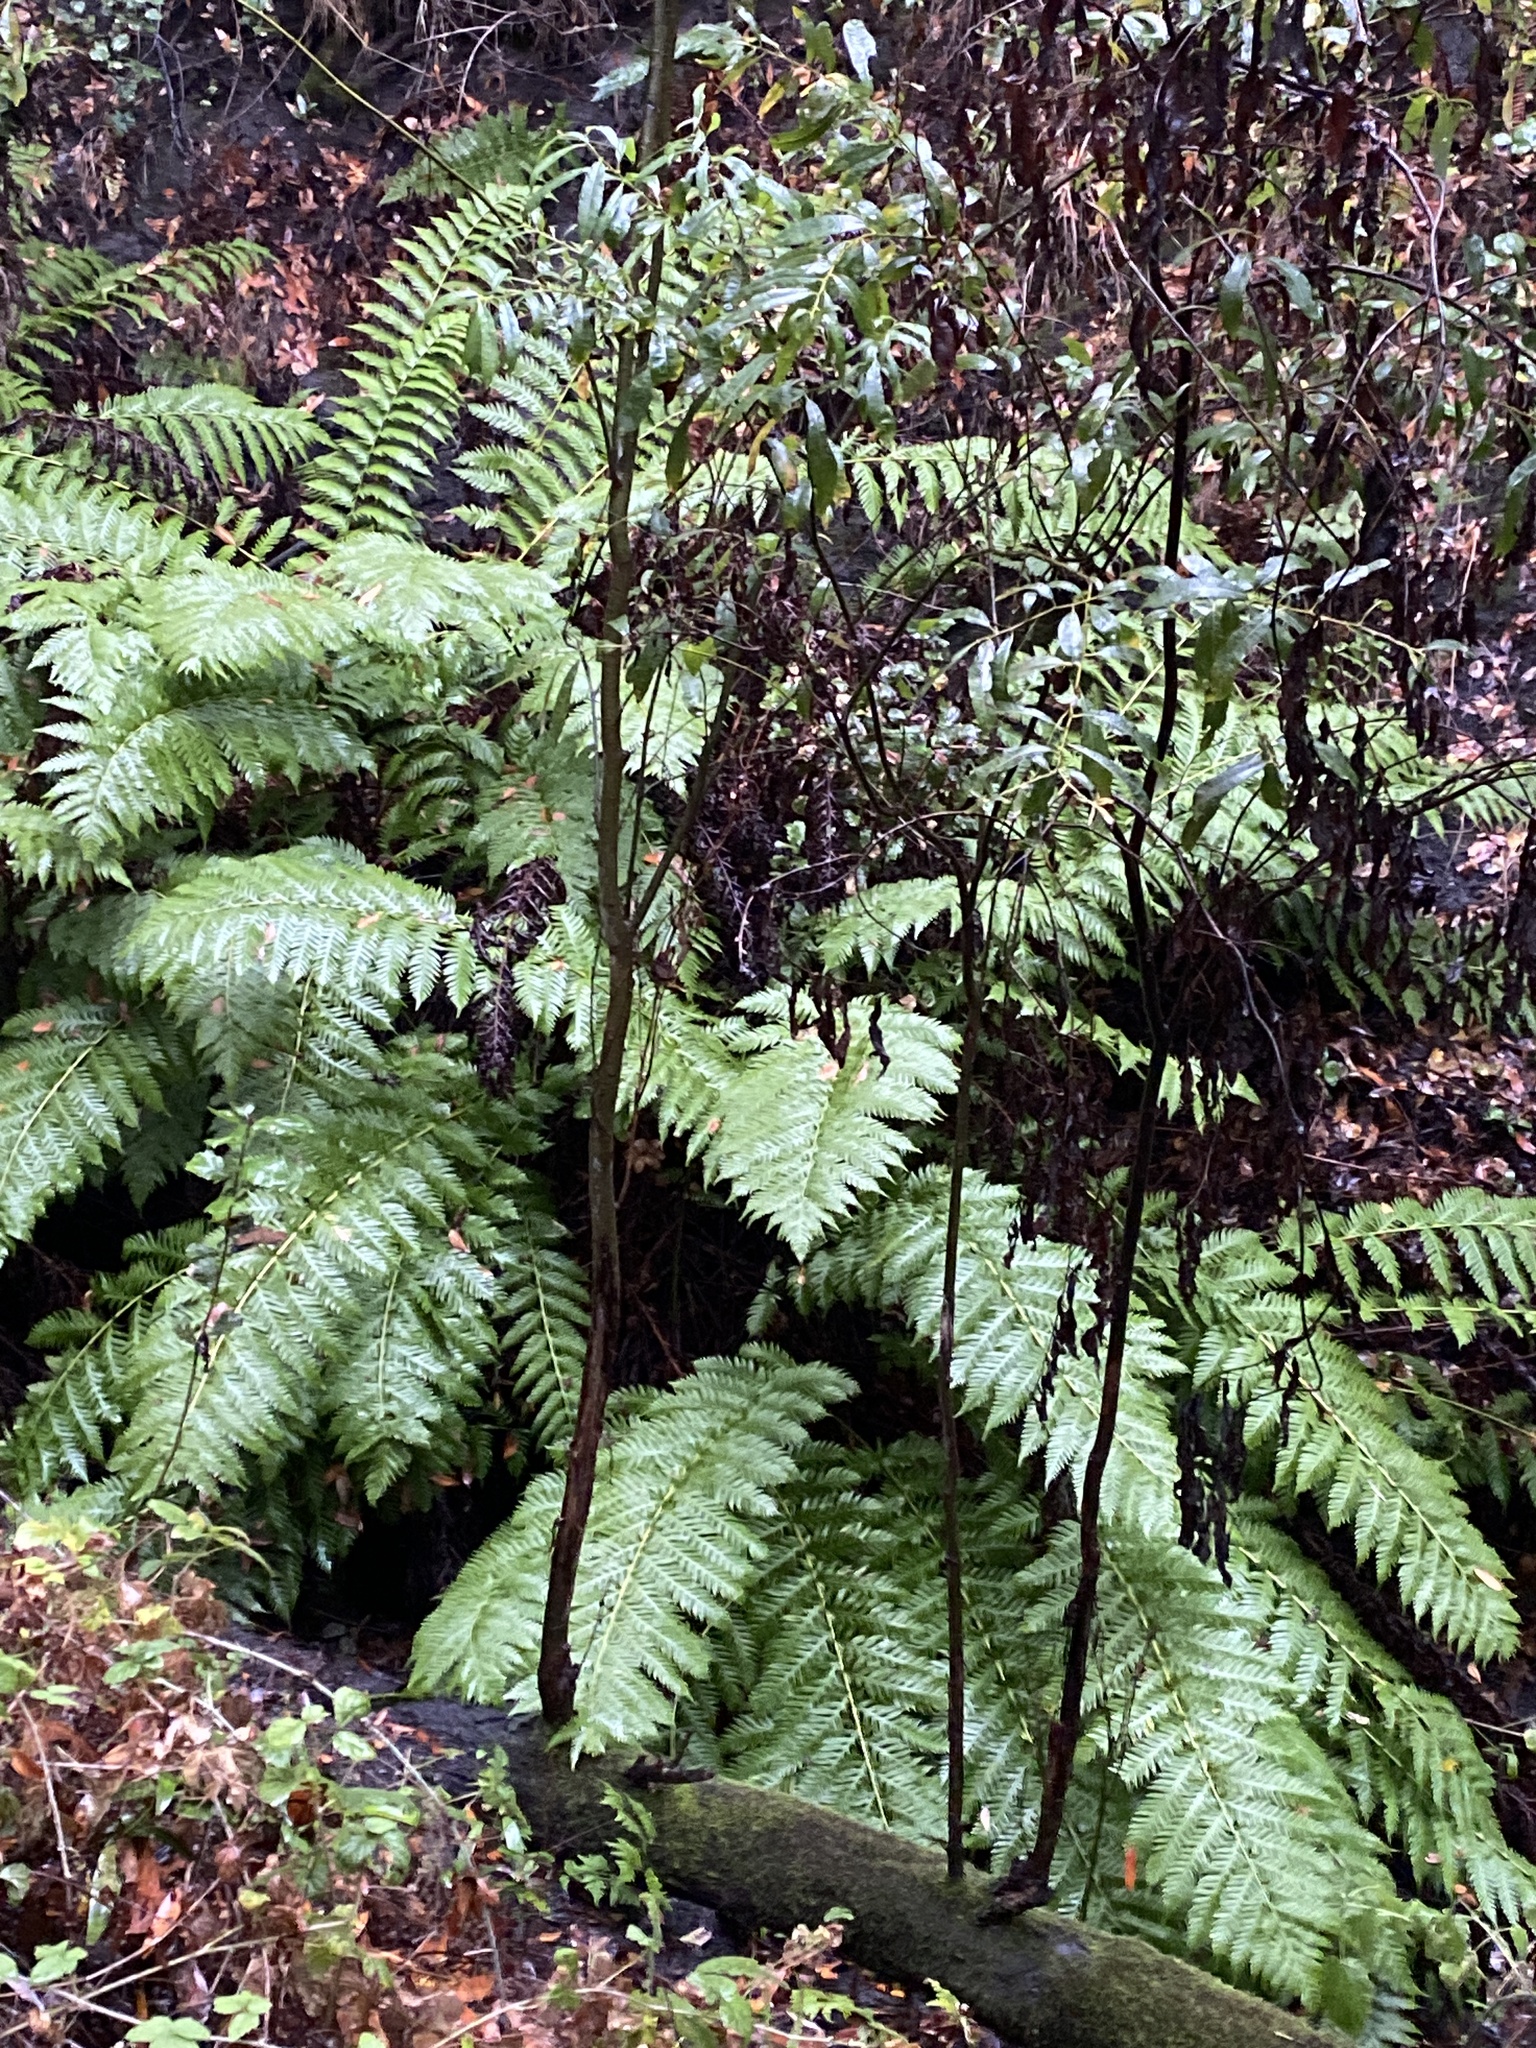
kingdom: Plantae
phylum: Tracheophyta
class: Polypodiopsida
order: Polypodiales
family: Blechnaceae
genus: Woodwardia
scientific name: Woodwardia fimbriata
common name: Giant chain fern
